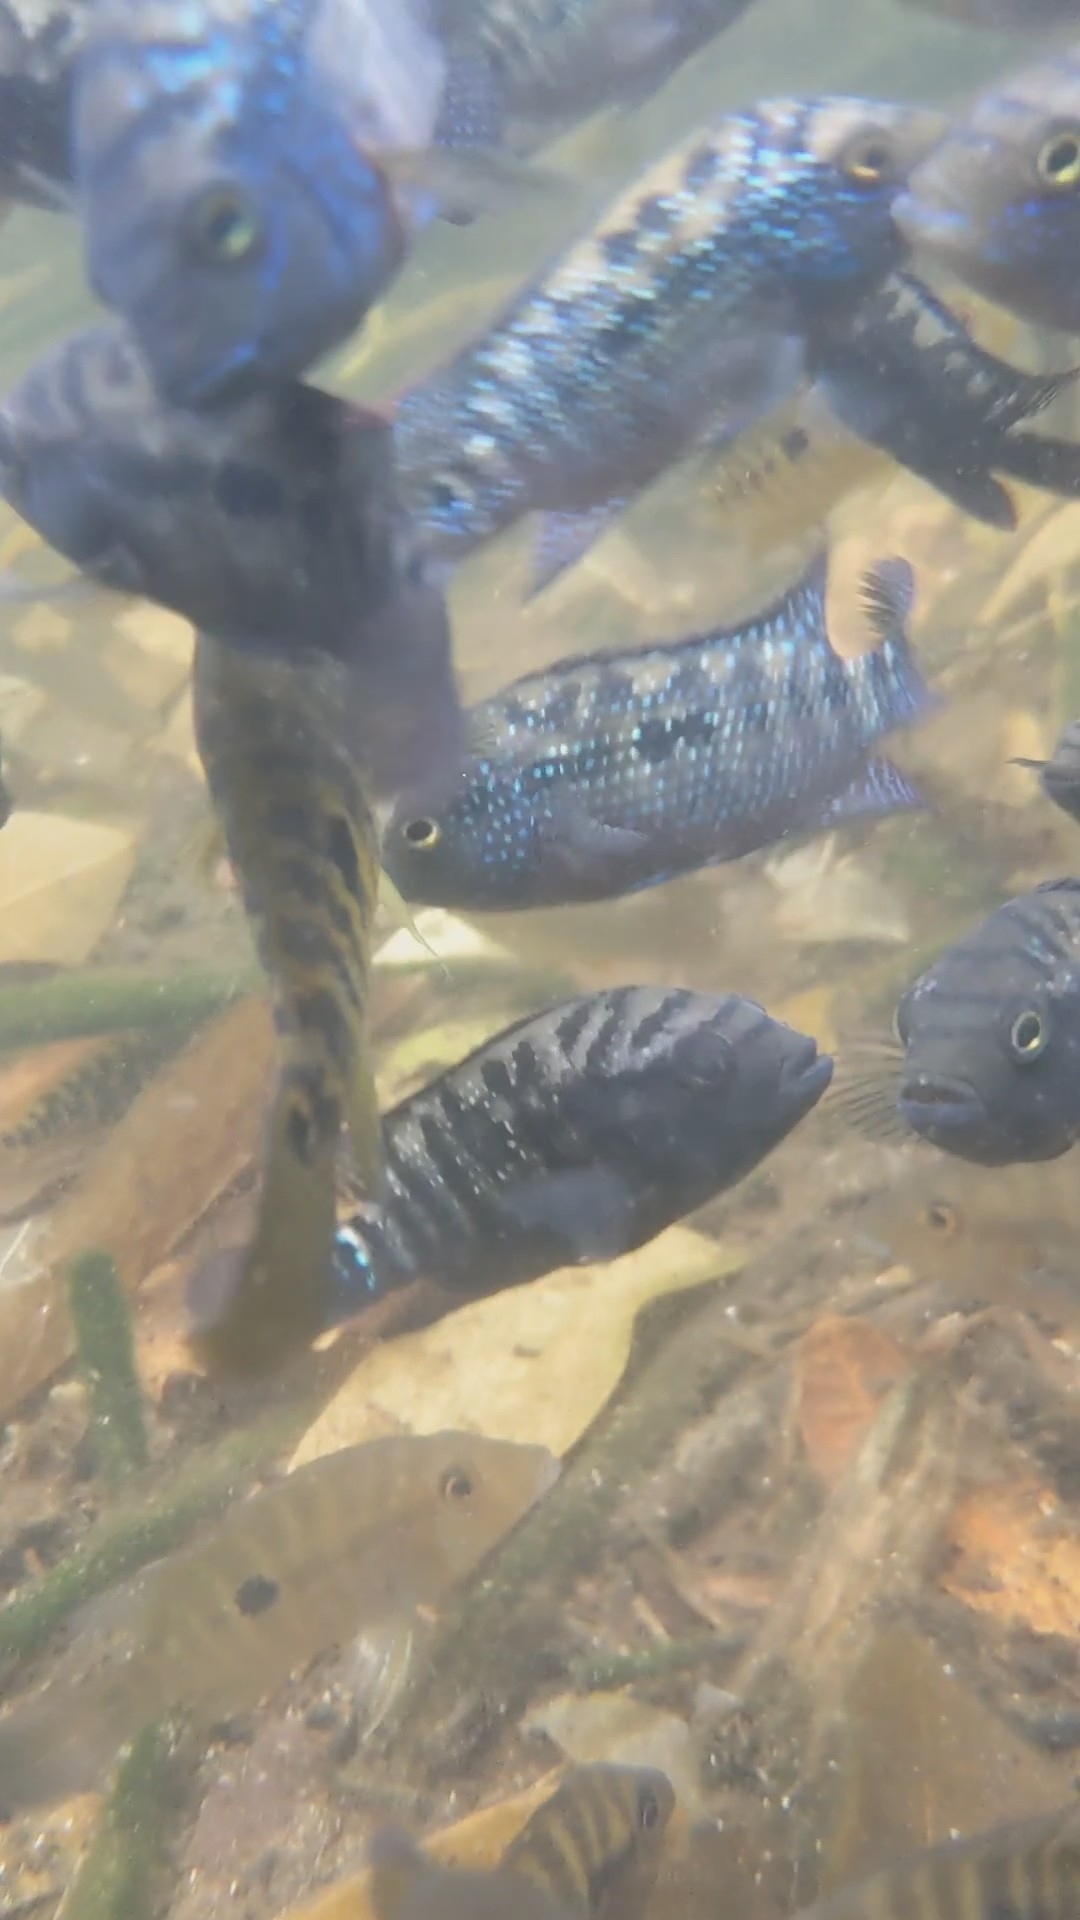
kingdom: Animalia
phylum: Chordata
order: Perciformes
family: Cichlidae
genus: Rocio
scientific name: Rocio octofasciata
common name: Jack dempsey
